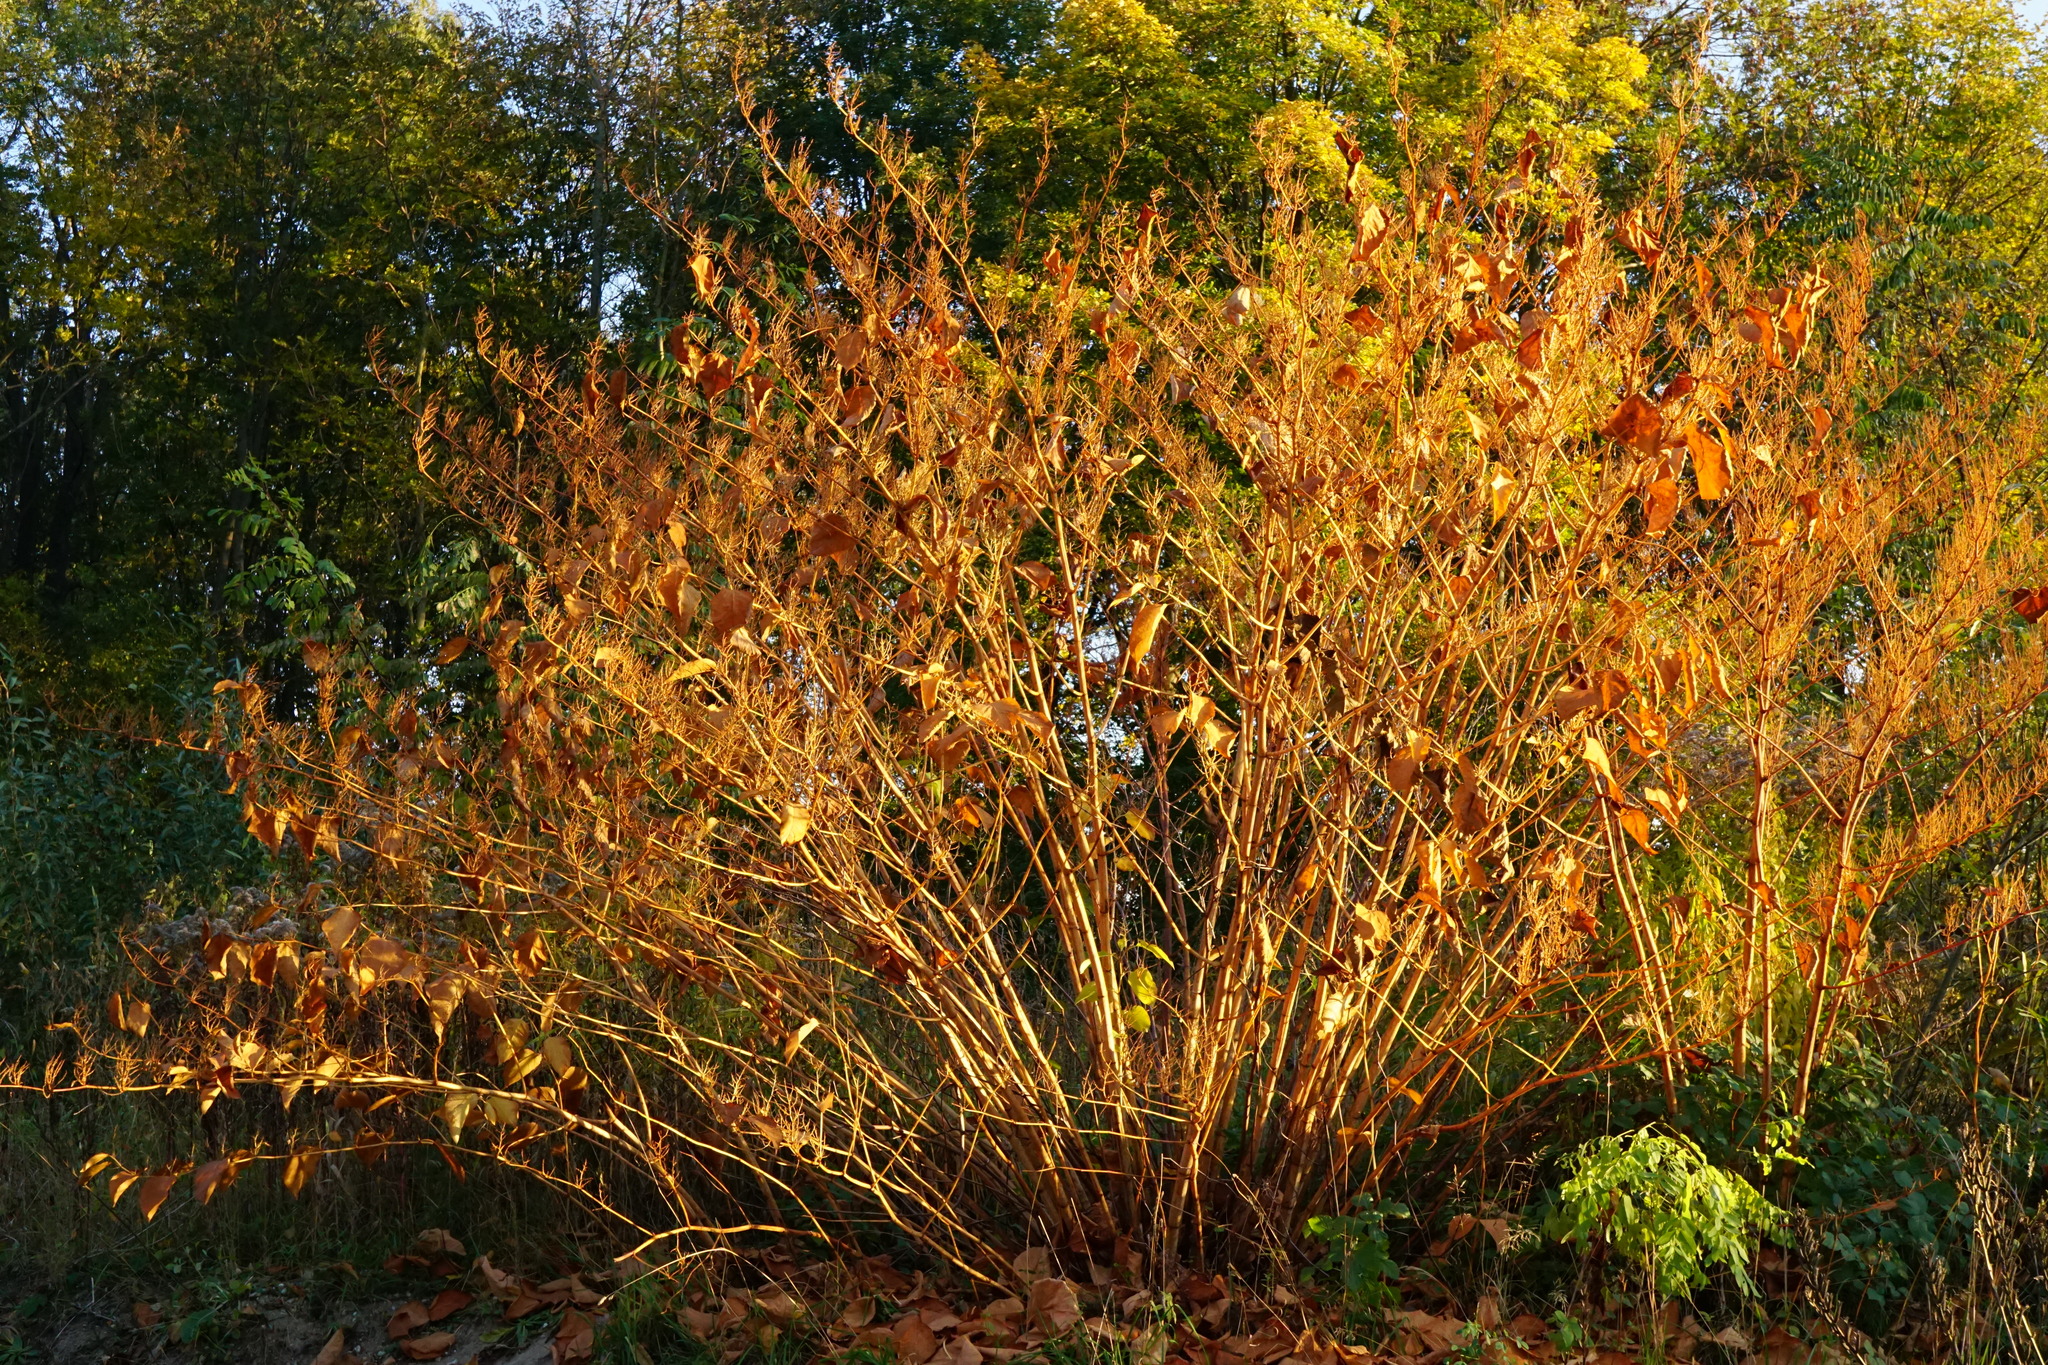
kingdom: Plantae
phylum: Tracheophyta
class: Magnoliopsida
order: Caryophyllales
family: Polygonaceae
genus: Reynoutria
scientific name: Reynoutria bohemica
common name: Bohemian knotweed
